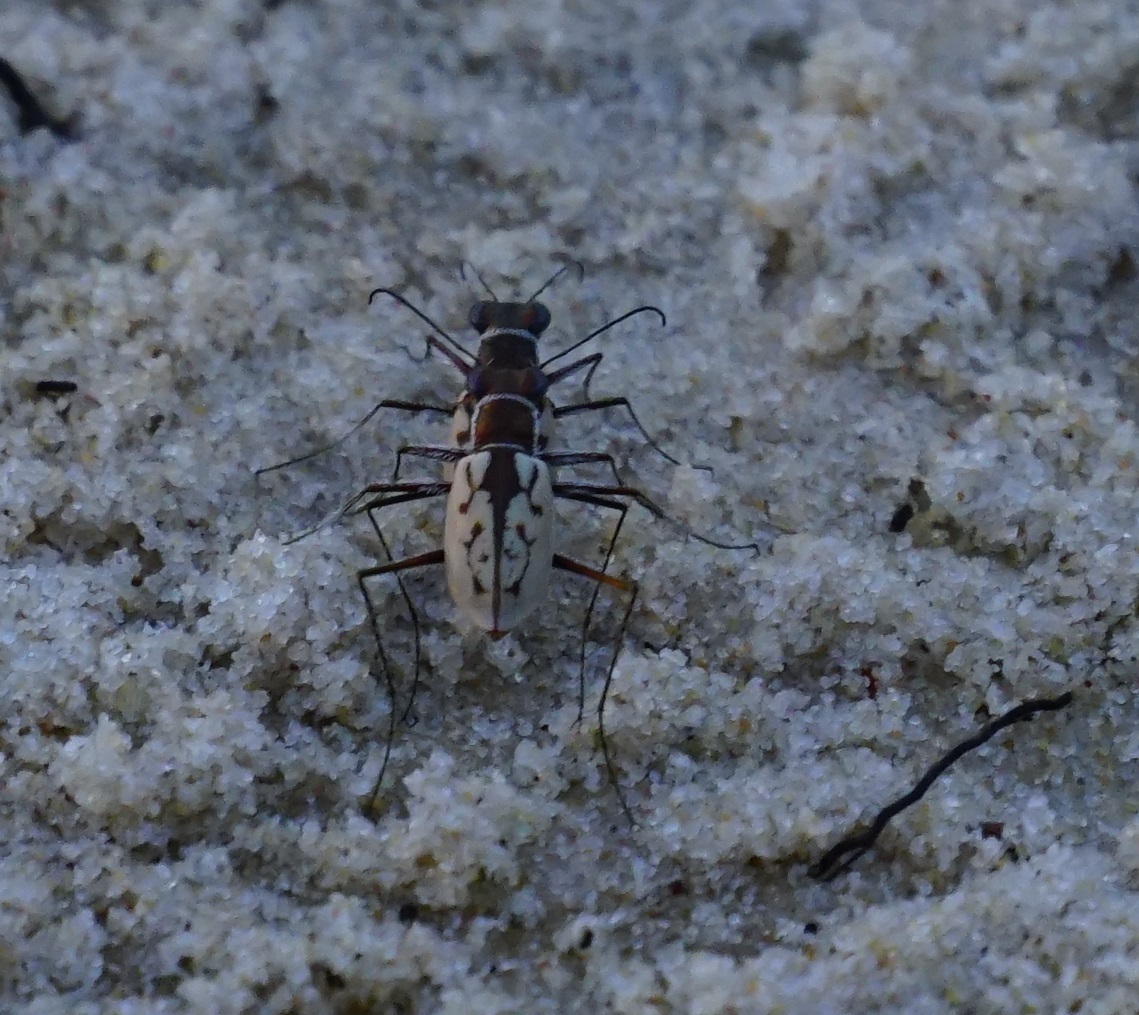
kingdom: Animalia
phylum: Arthropoda
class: Insecta
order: Coleoptera
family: Carabidae
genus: Hypaetha
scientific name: Hypaetha upsilon
